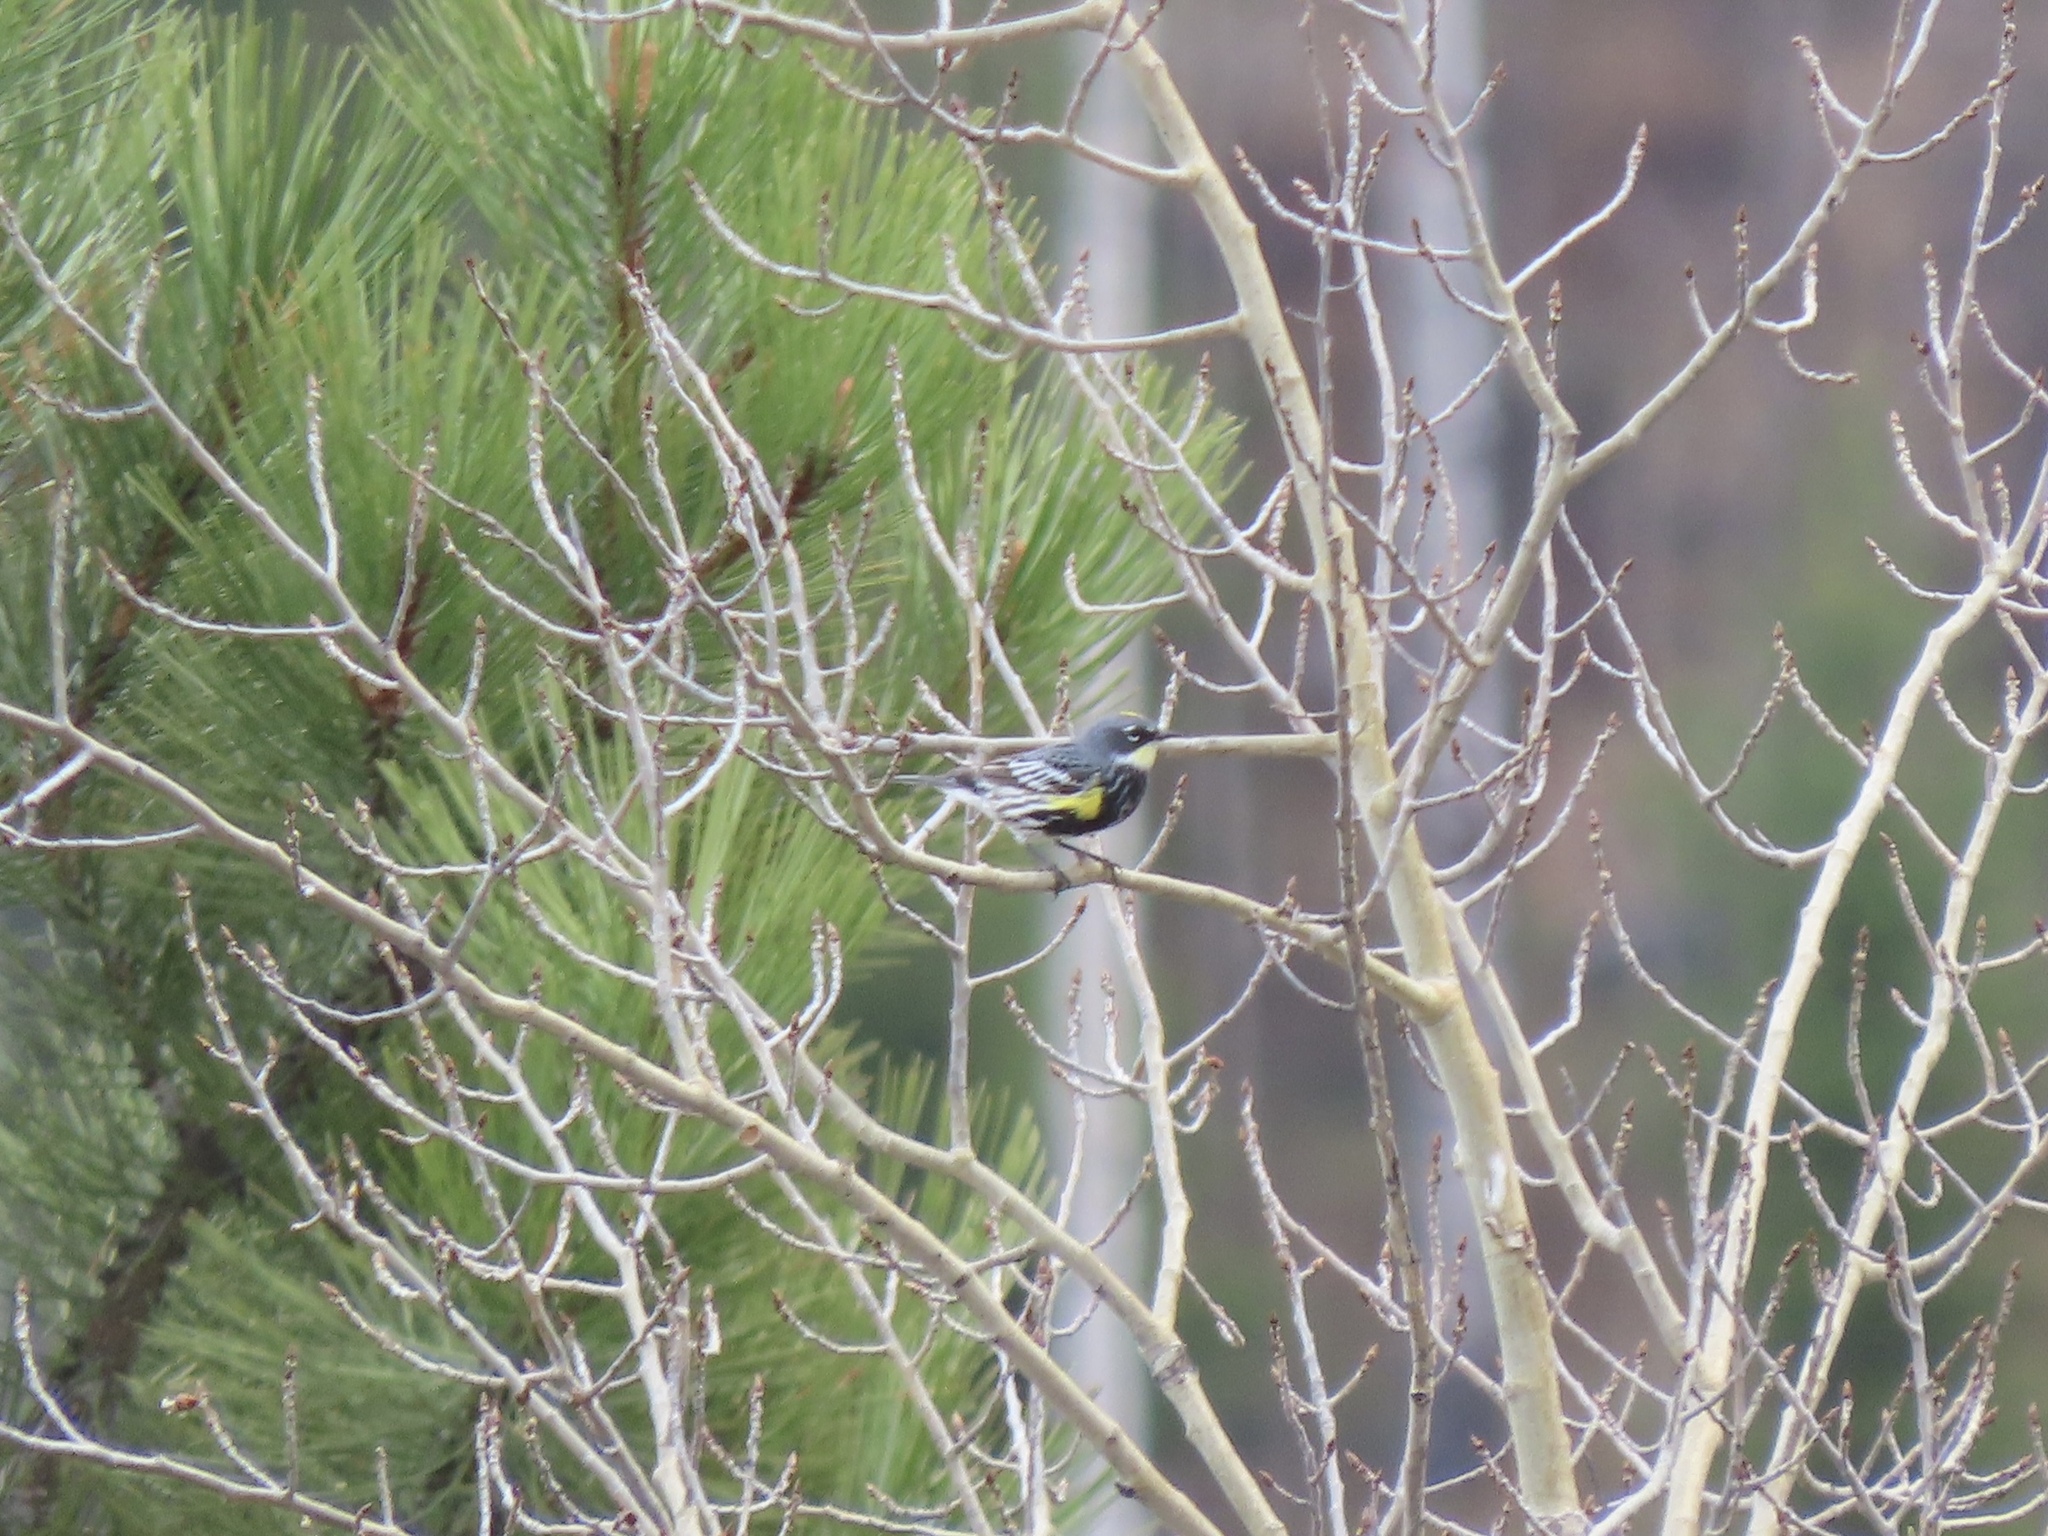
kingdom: Animalia
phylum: Chordata
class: Aves
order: Passeriformes
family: Parulidae
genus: Setophaga
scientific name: Setophaga coronata
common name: Myrtle warbler
